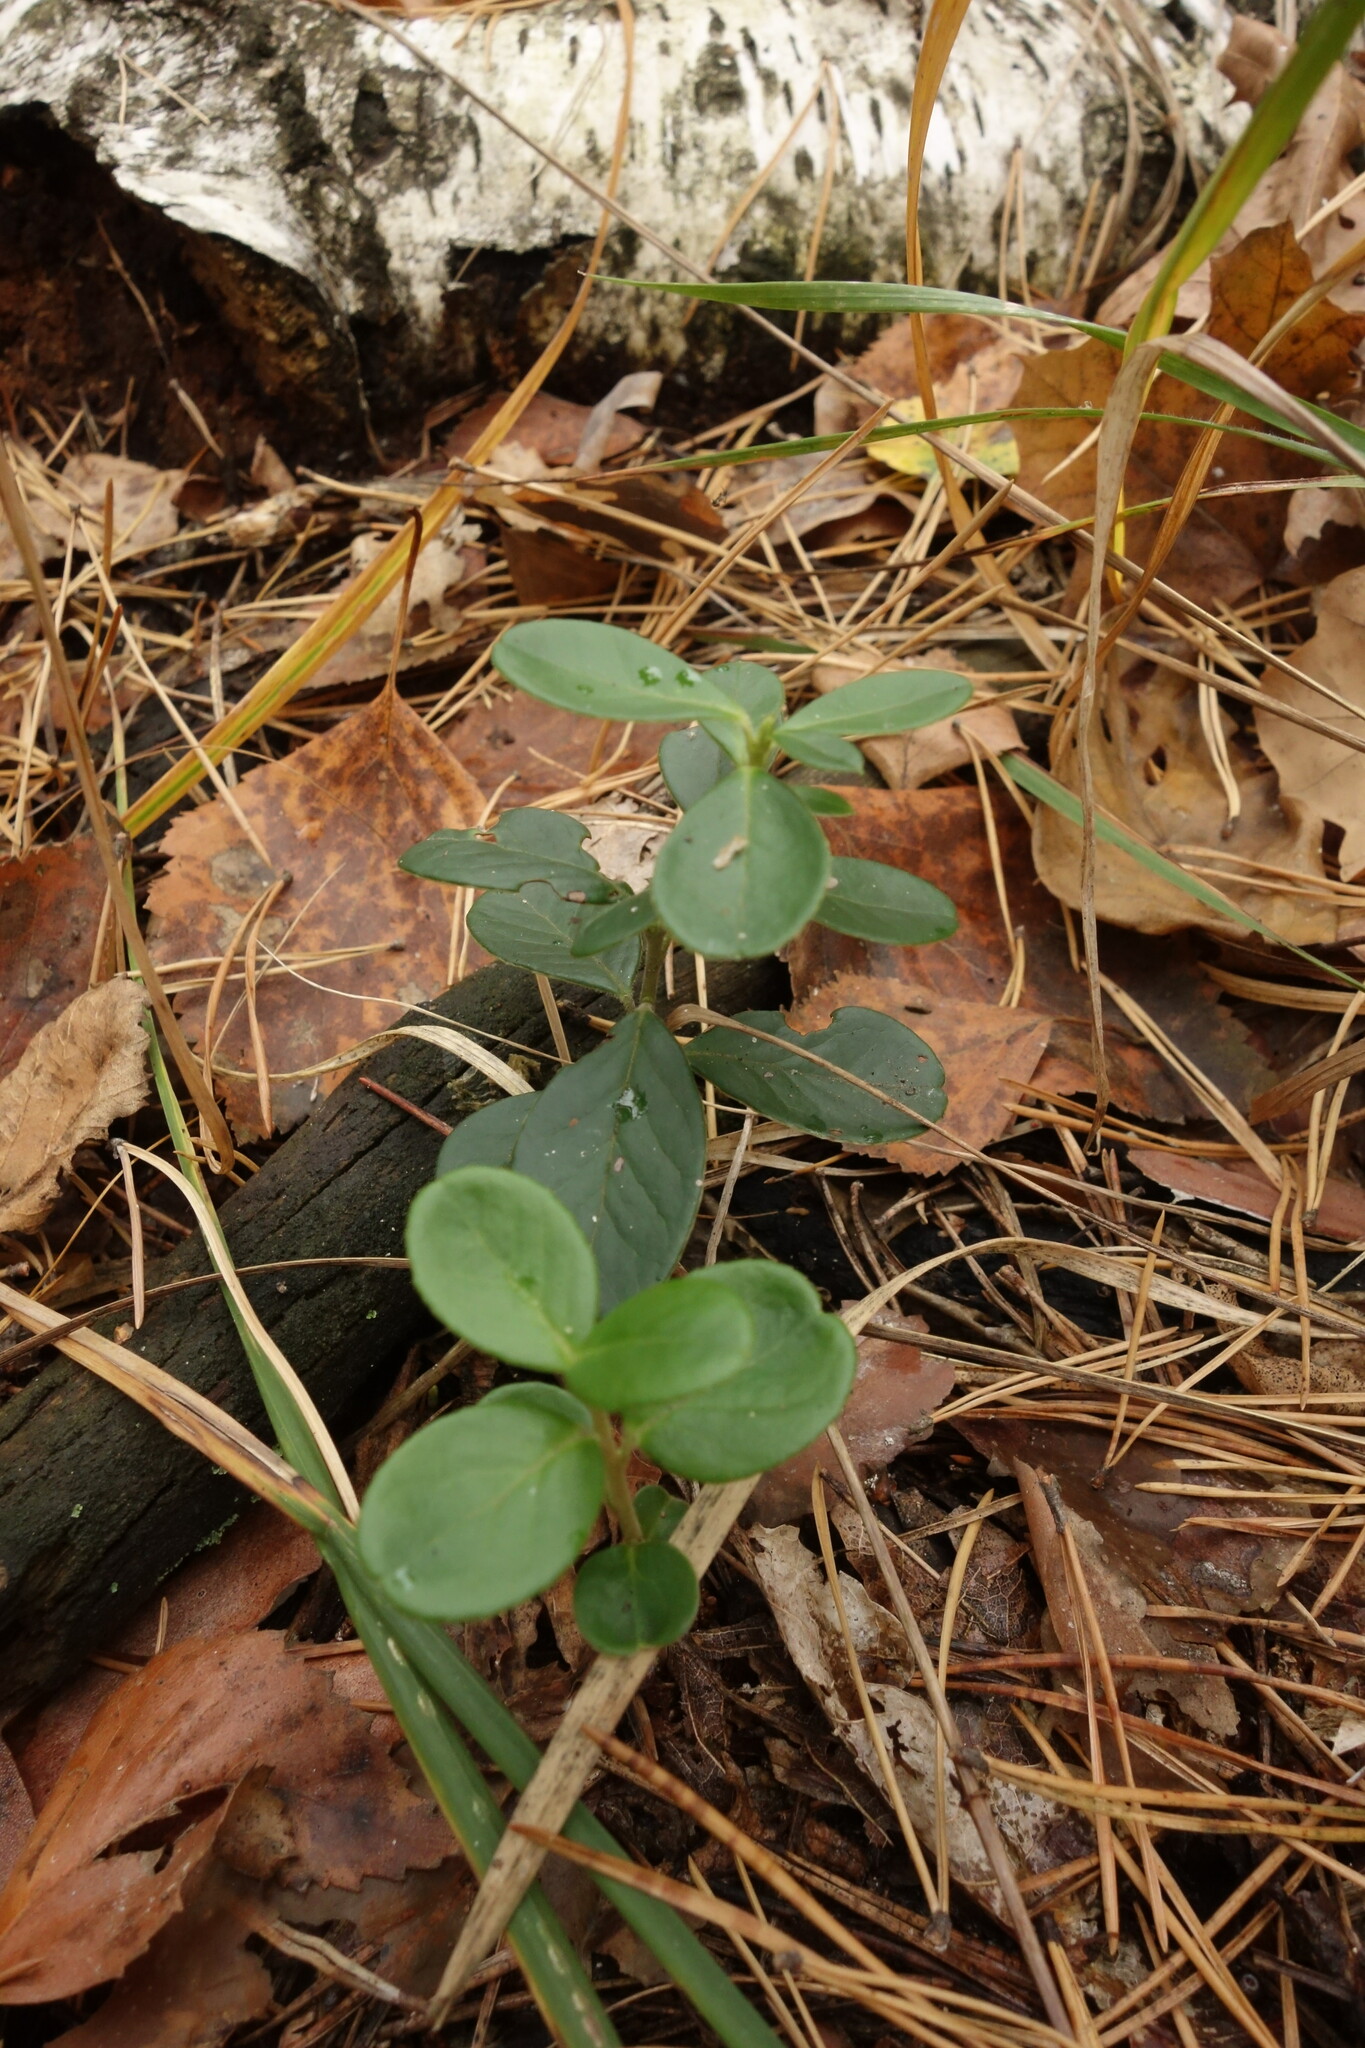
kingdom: Plantae
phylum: Tracheophyta
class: Magnoliopsida
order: Ericales
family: Ericaceae
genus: Vaccinium
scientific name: Vaccinium vitis-idaea
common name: Cowberry
